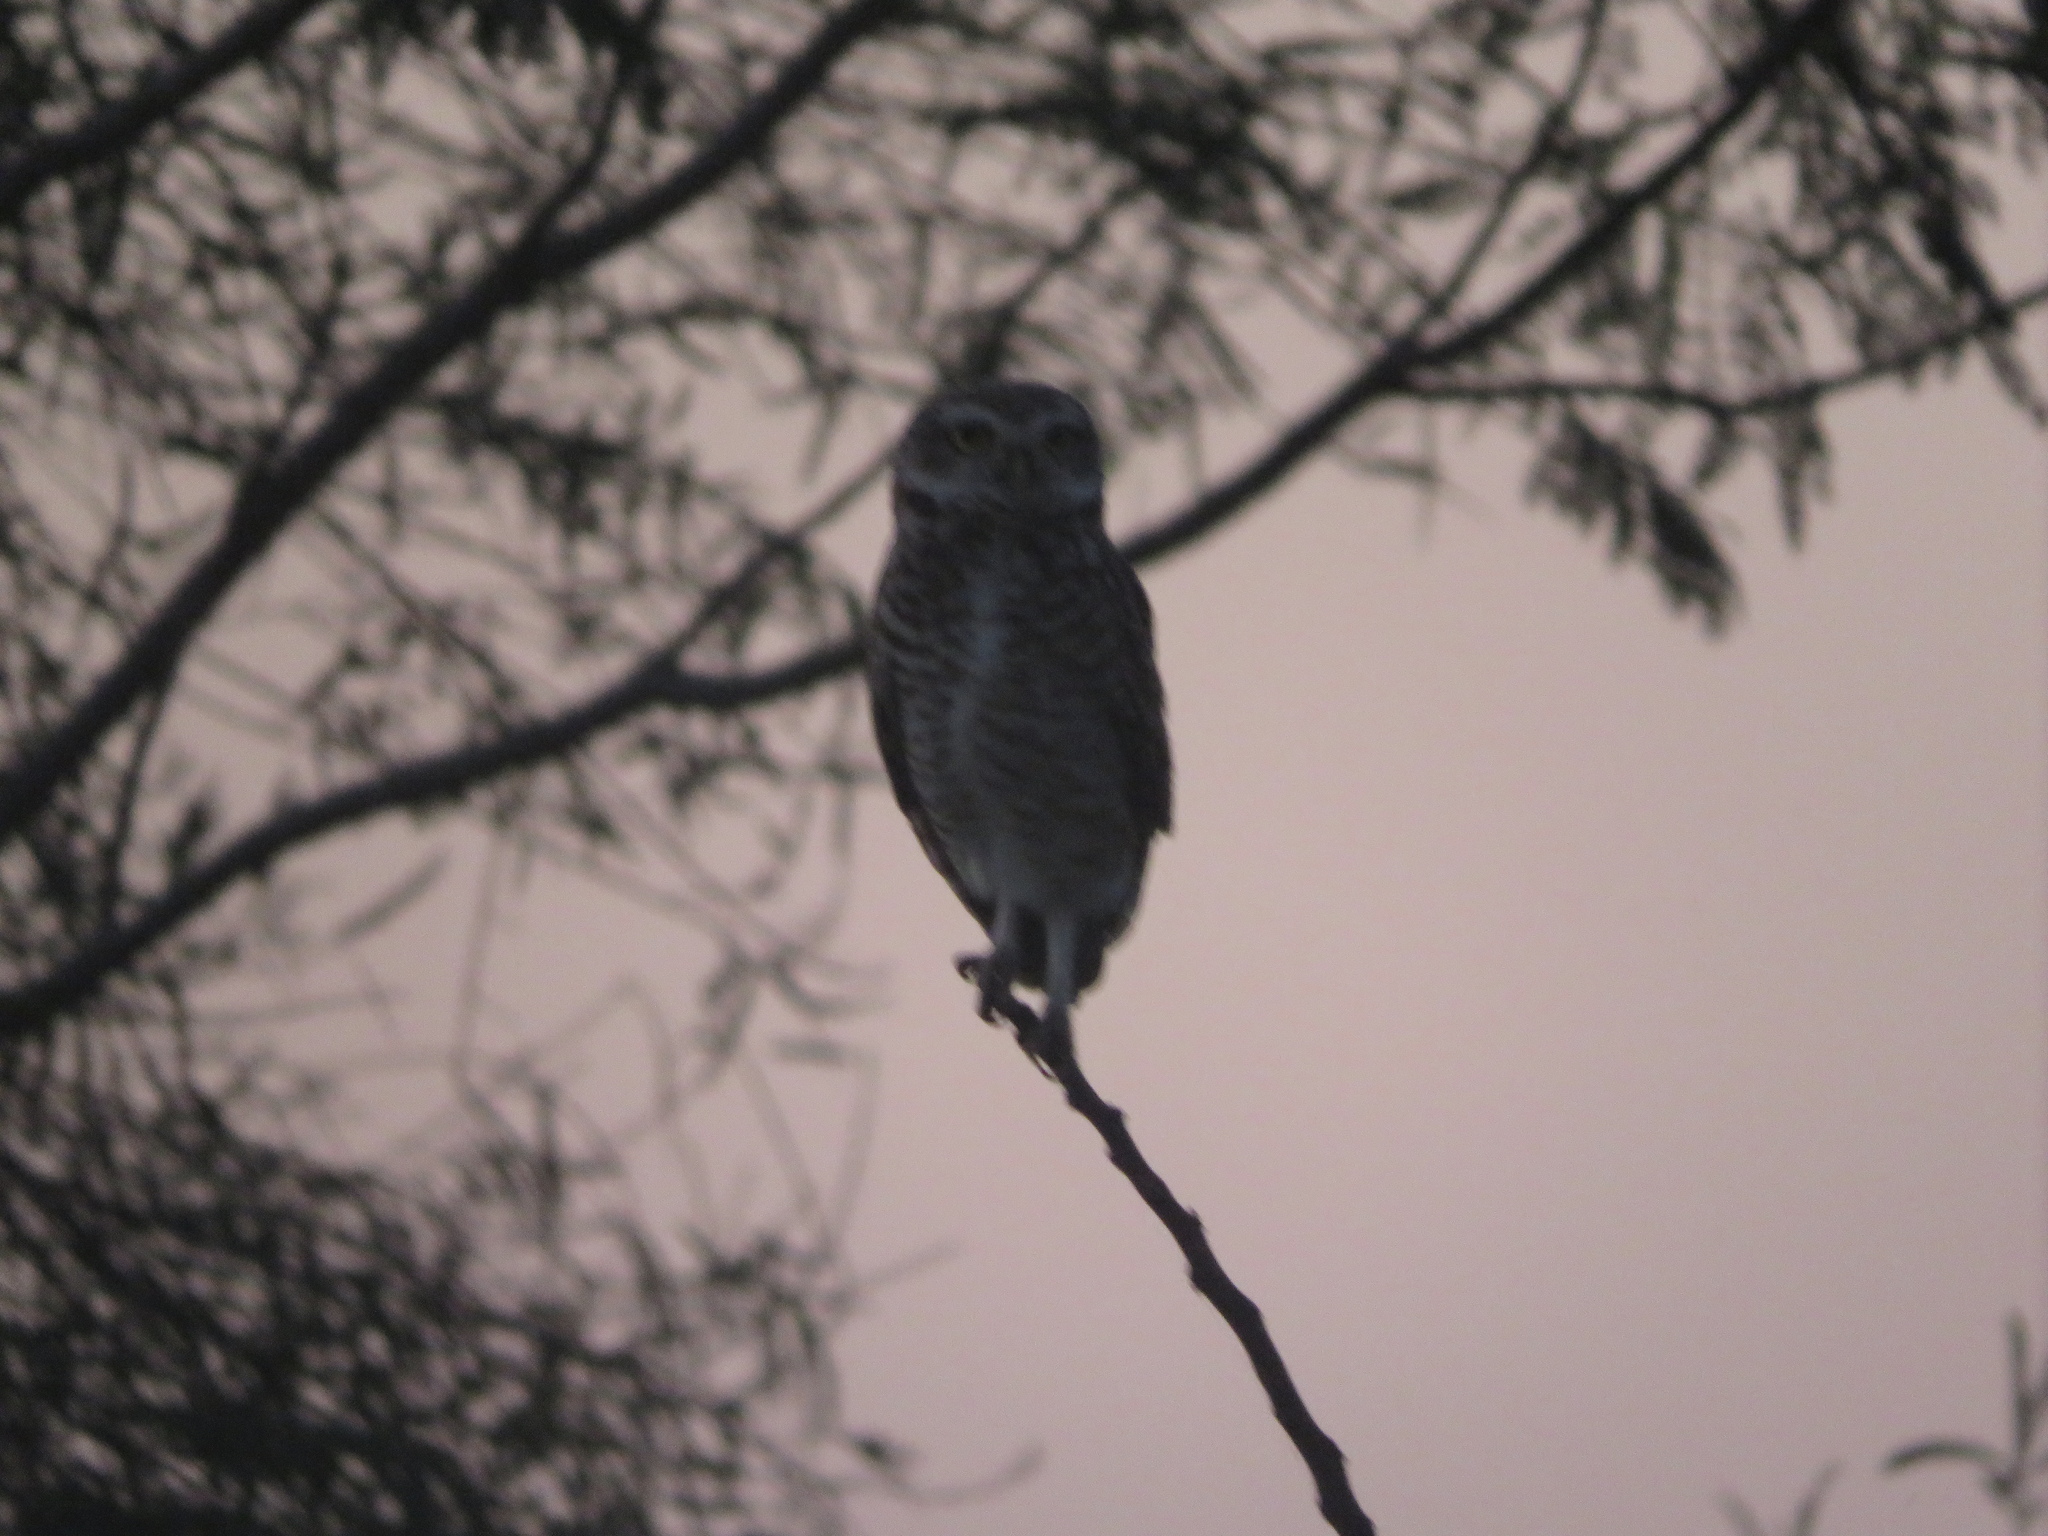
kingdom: Animalia
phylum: Chordata
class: Aves
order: Strigiformes
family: Strigidae
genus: Athene
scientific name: Athene cunicularia
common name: Burrowing owl
